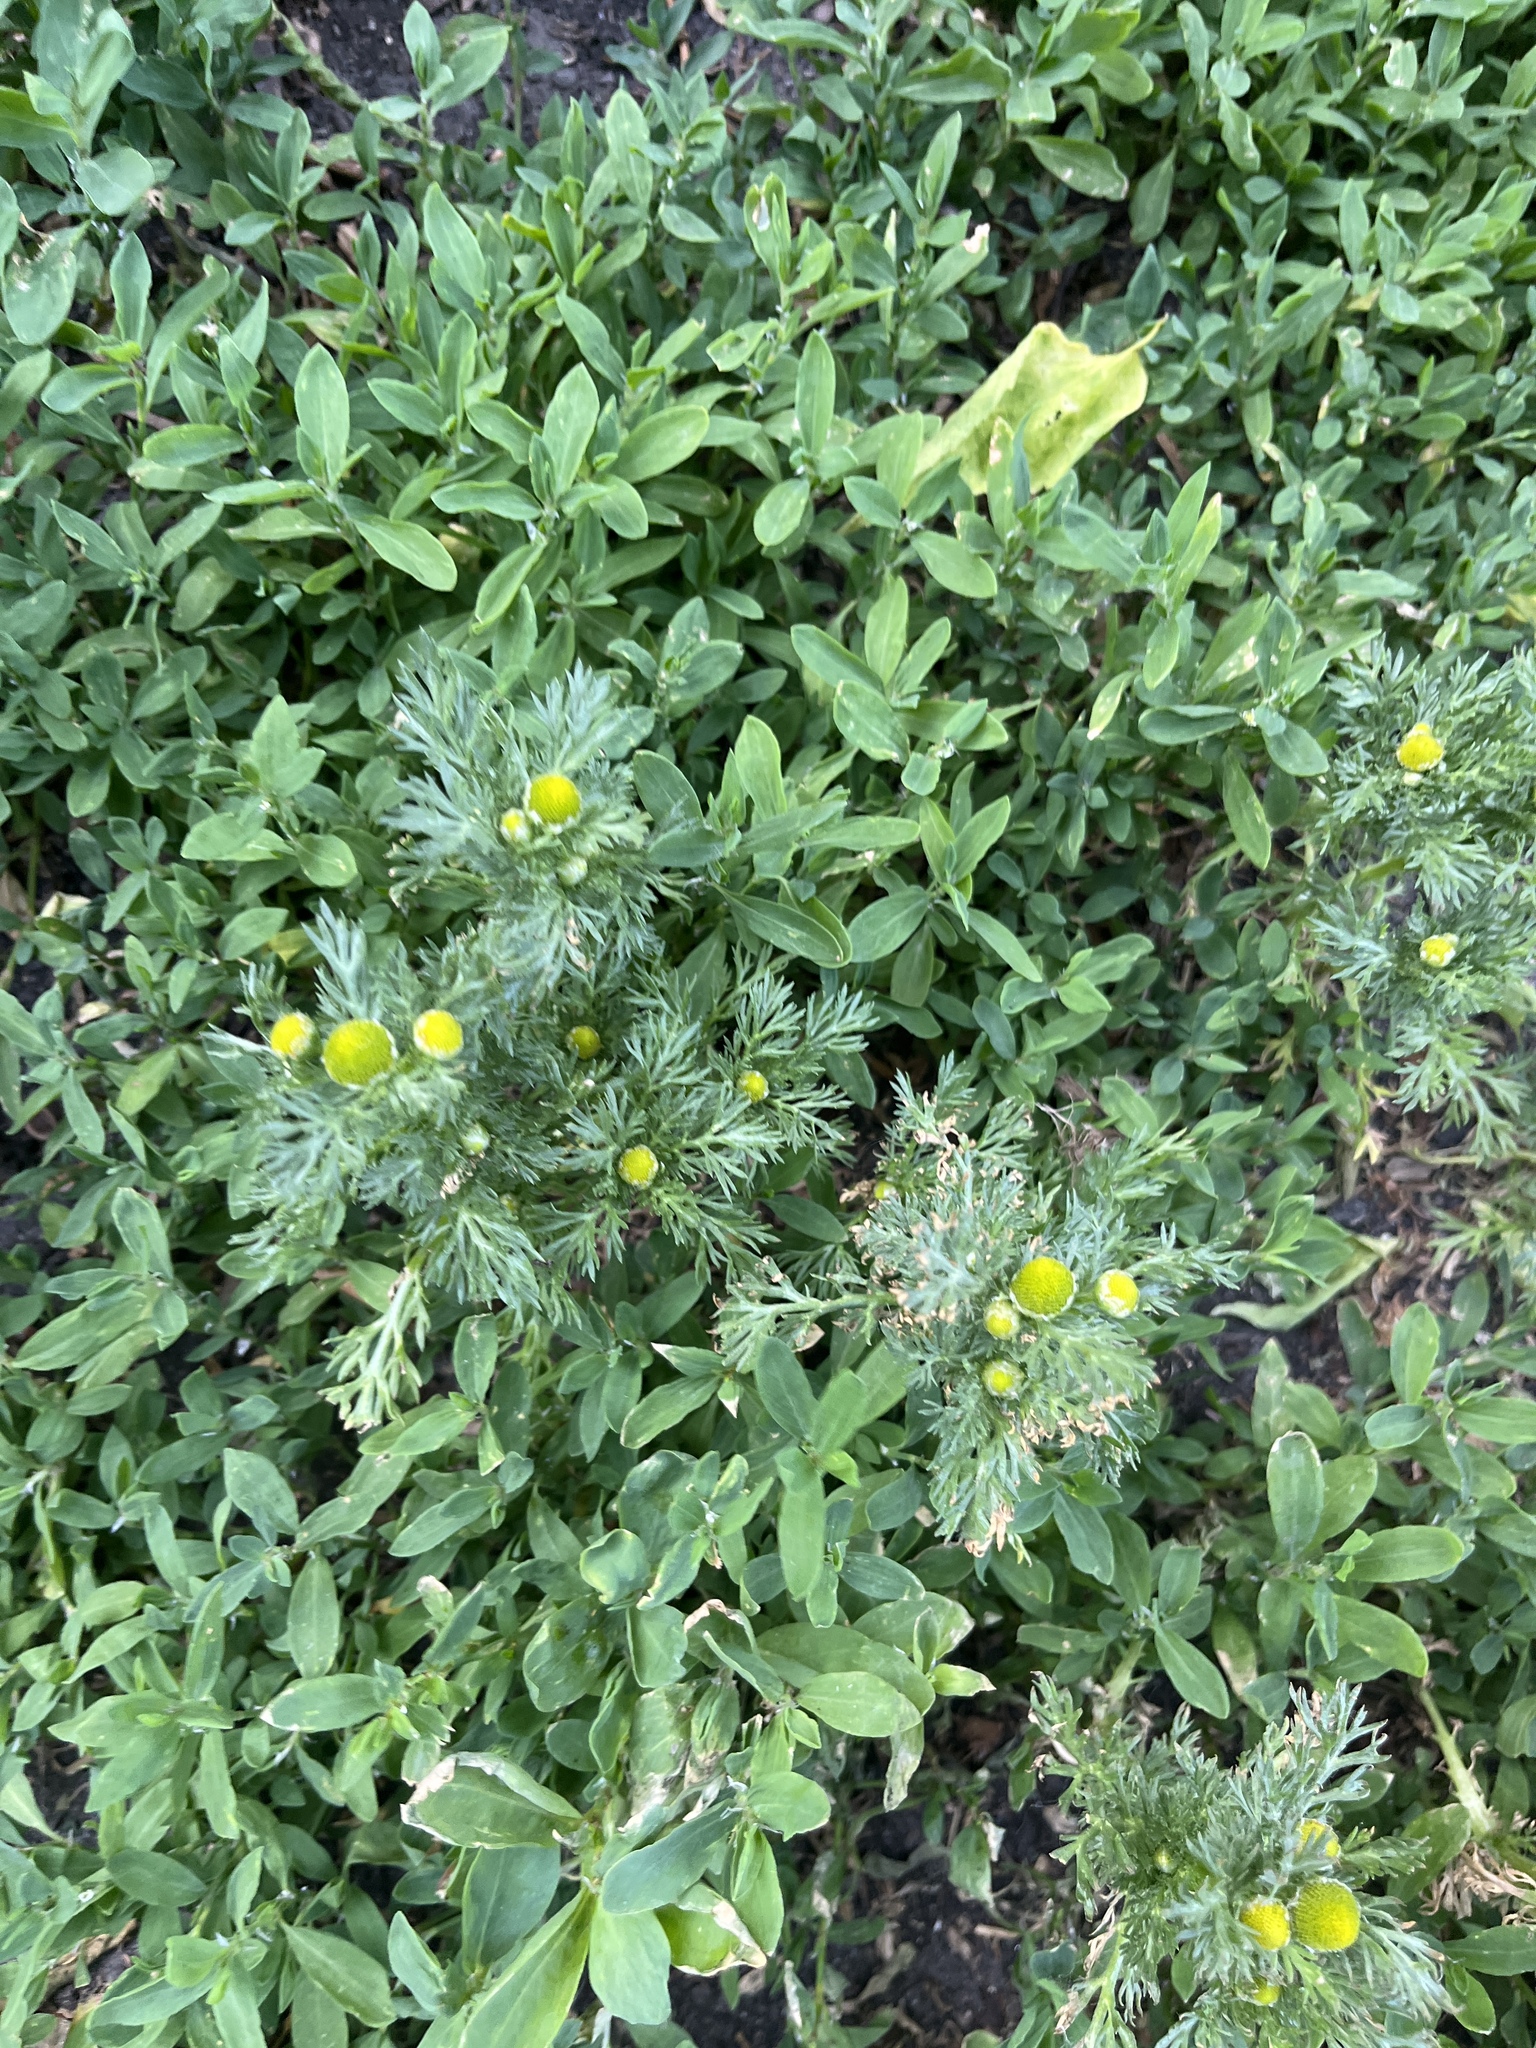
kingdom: Plantae
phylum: Tracheophyta
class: Magnoliopsida
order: Asterales
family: Asteraceae
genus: Matricaria
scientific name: Matricaria discoidea
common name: Disc mayweed
